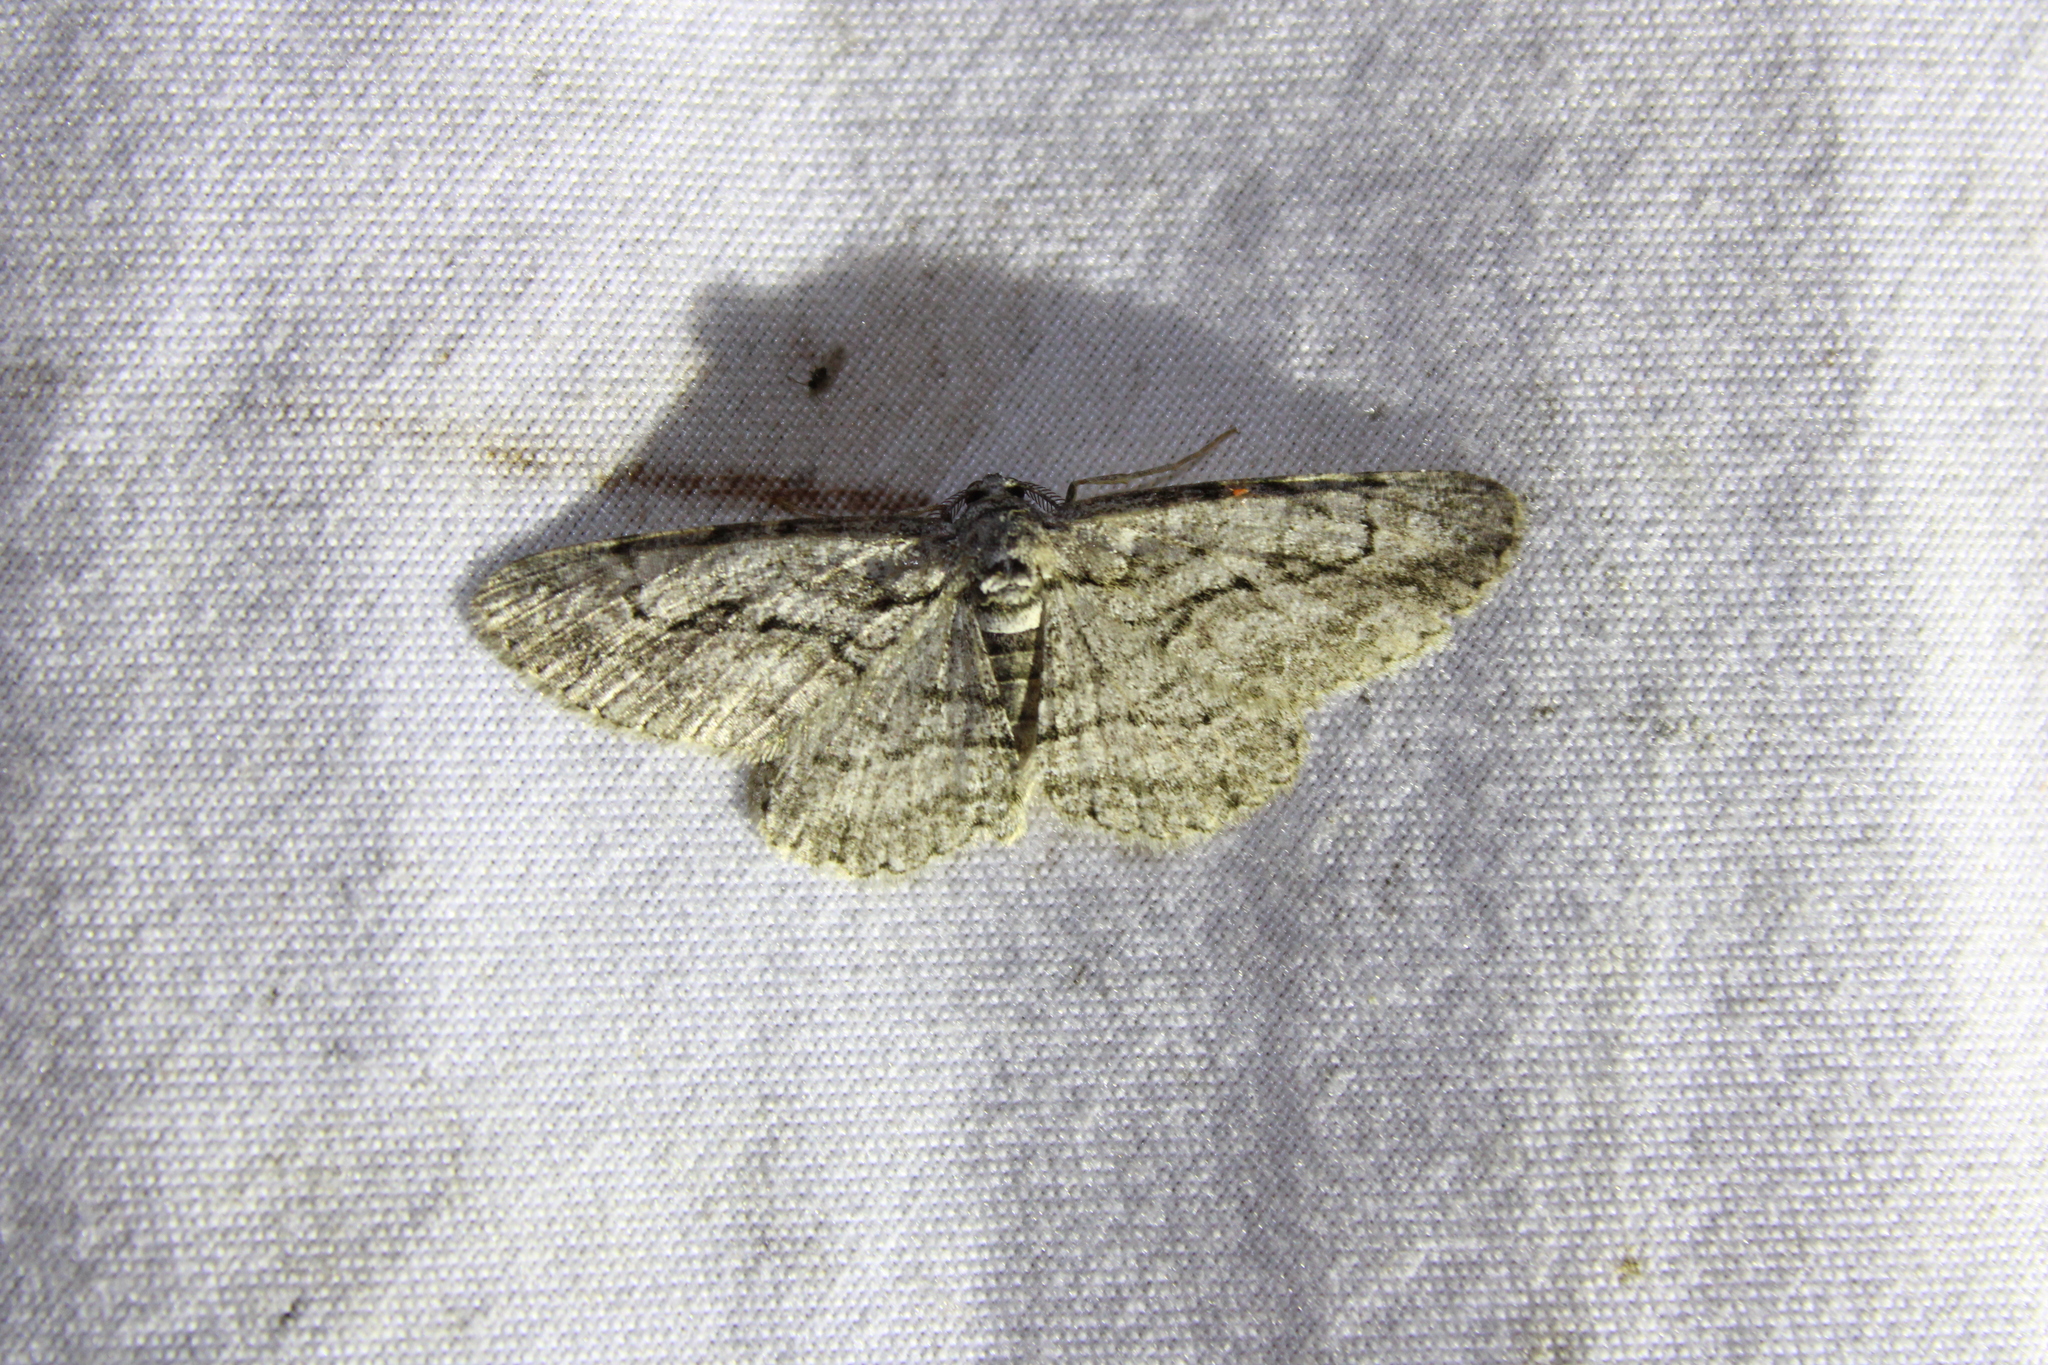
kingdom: Animalia
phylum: Arthropoda
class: Insecta
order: Lepidoptera
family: Geometridae
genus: Anavitrinella
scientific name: Anavitrinella pampinaria
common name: Common gray
